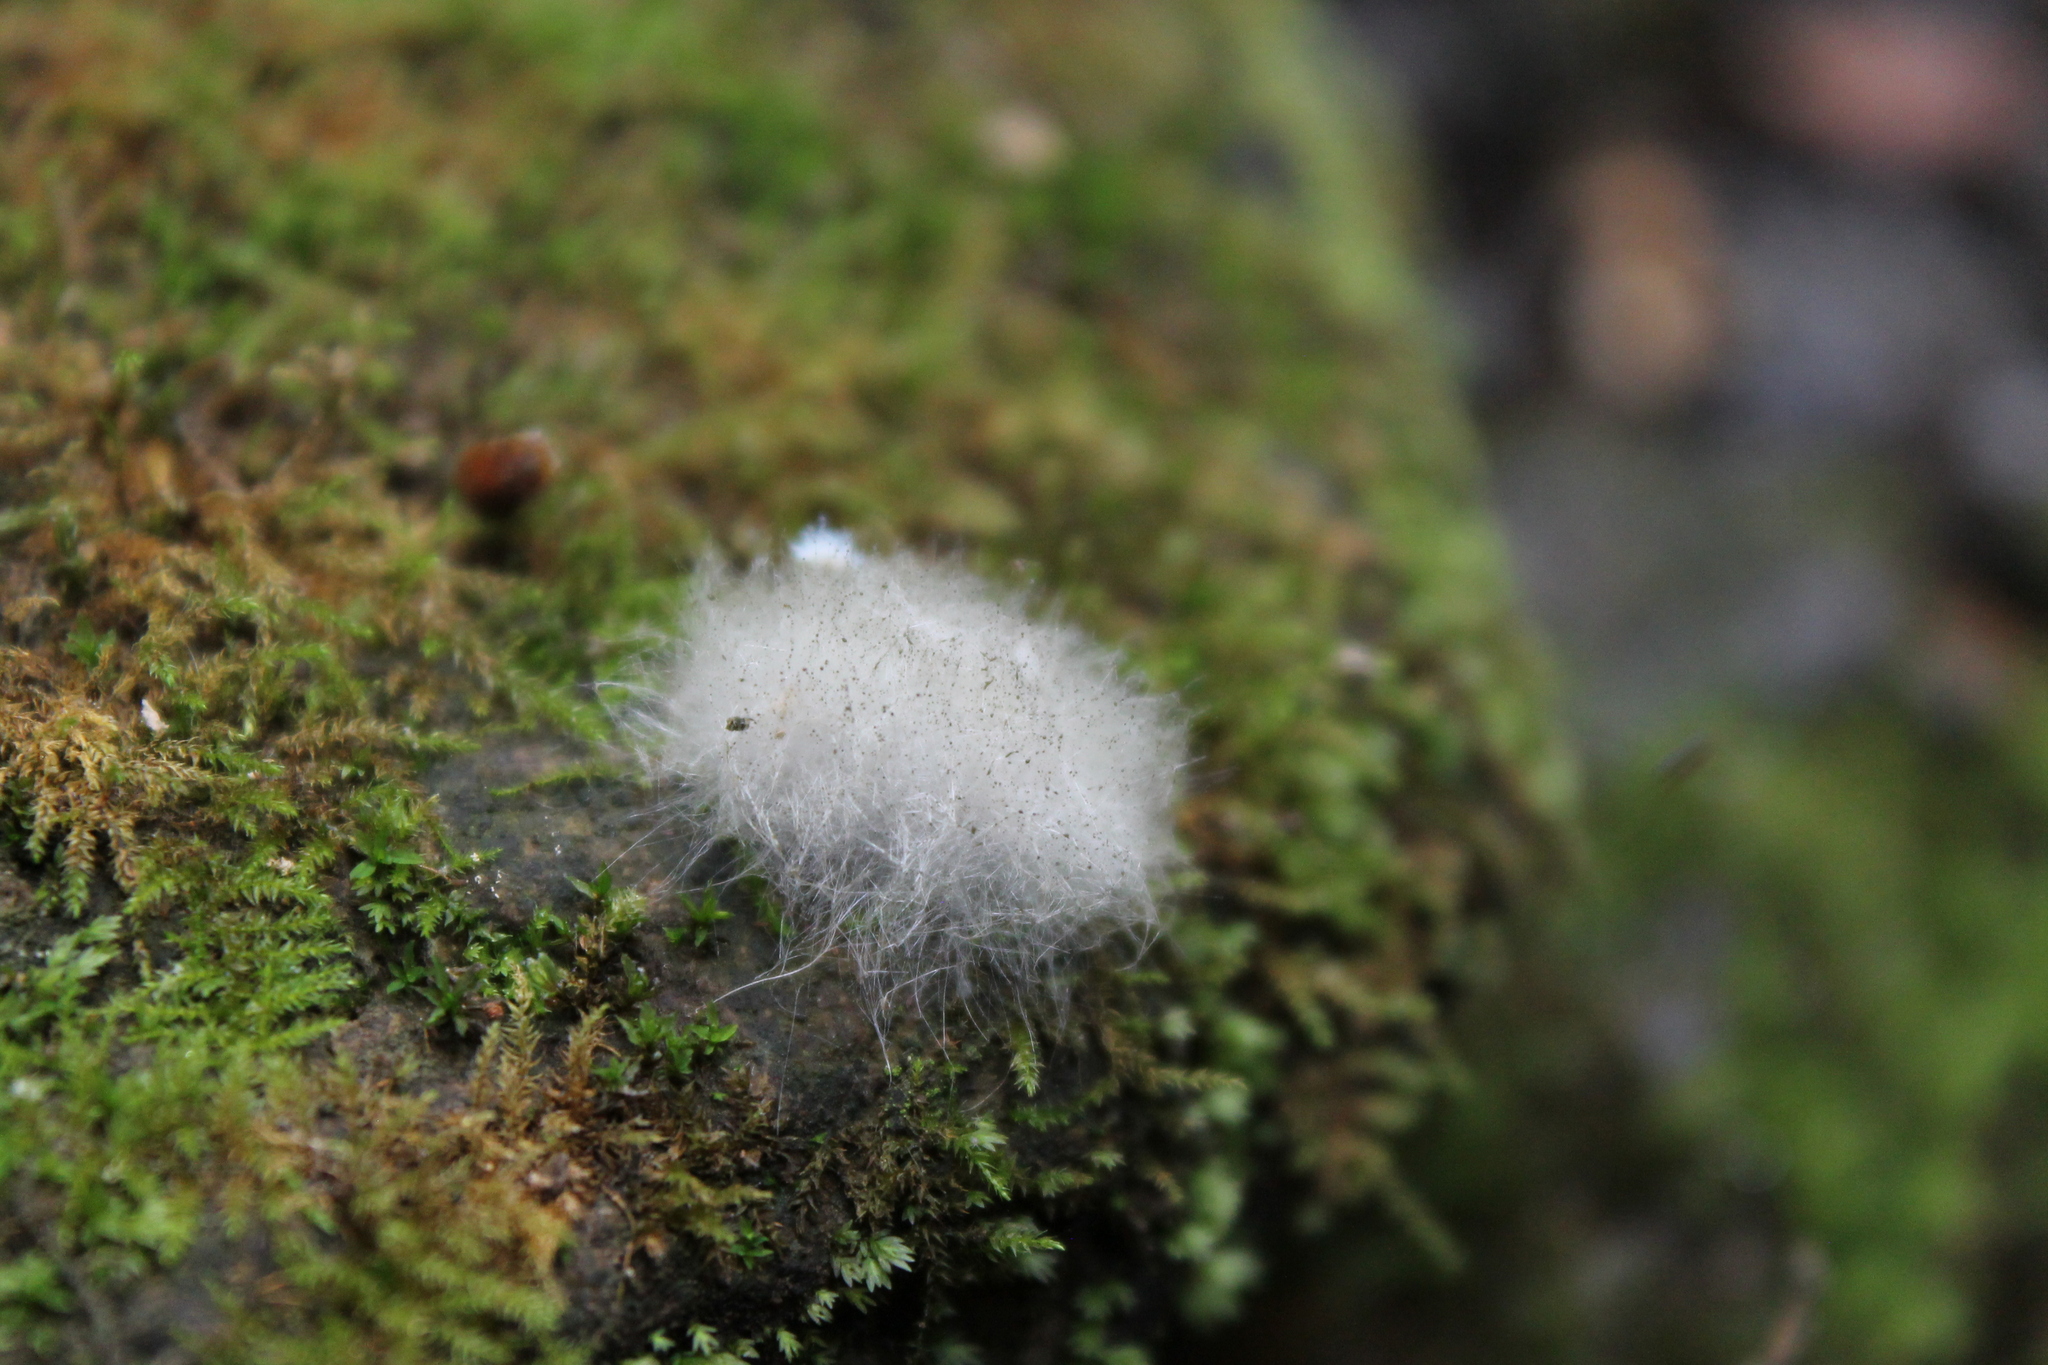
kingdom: Fungi
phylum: Mucoromycota
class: Mucoromycetes
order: Mucorales
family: Phycomycetaceae
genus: Phycomyces
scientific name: Phycomyces blakesleeanus
